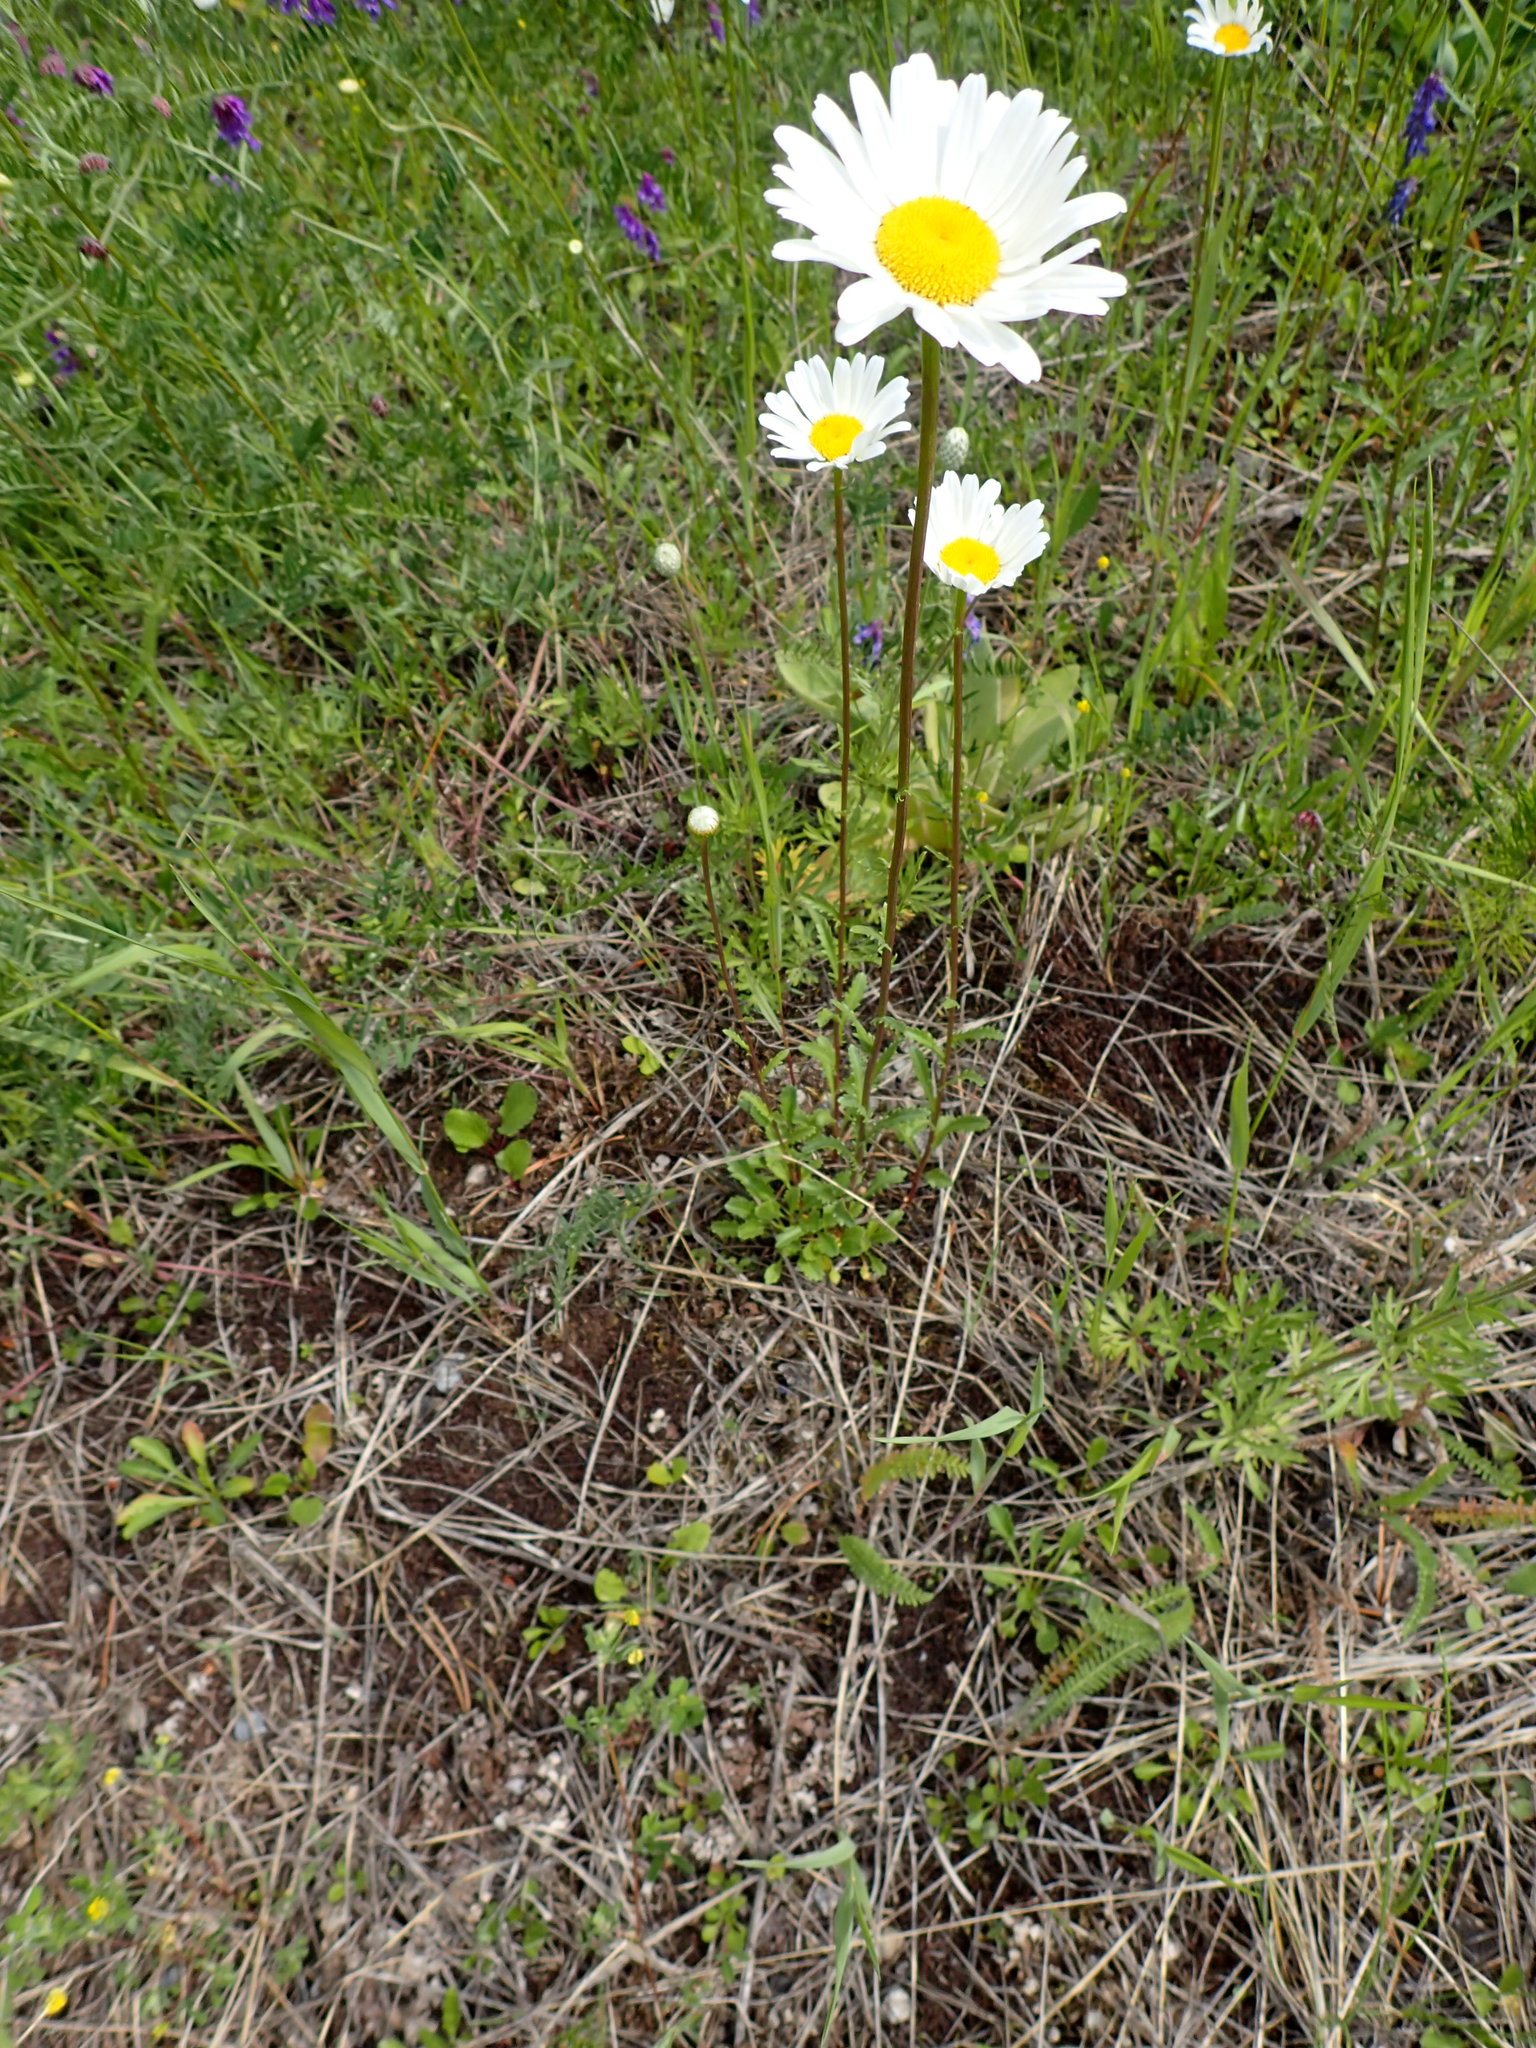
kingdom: Plantae
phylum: Tracheophyta
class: Magnoliopsida
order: Asterales
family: Asteraceae
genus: Leucanthemum
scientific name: Leucanthemum vulgare
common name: Oxeye daisy
